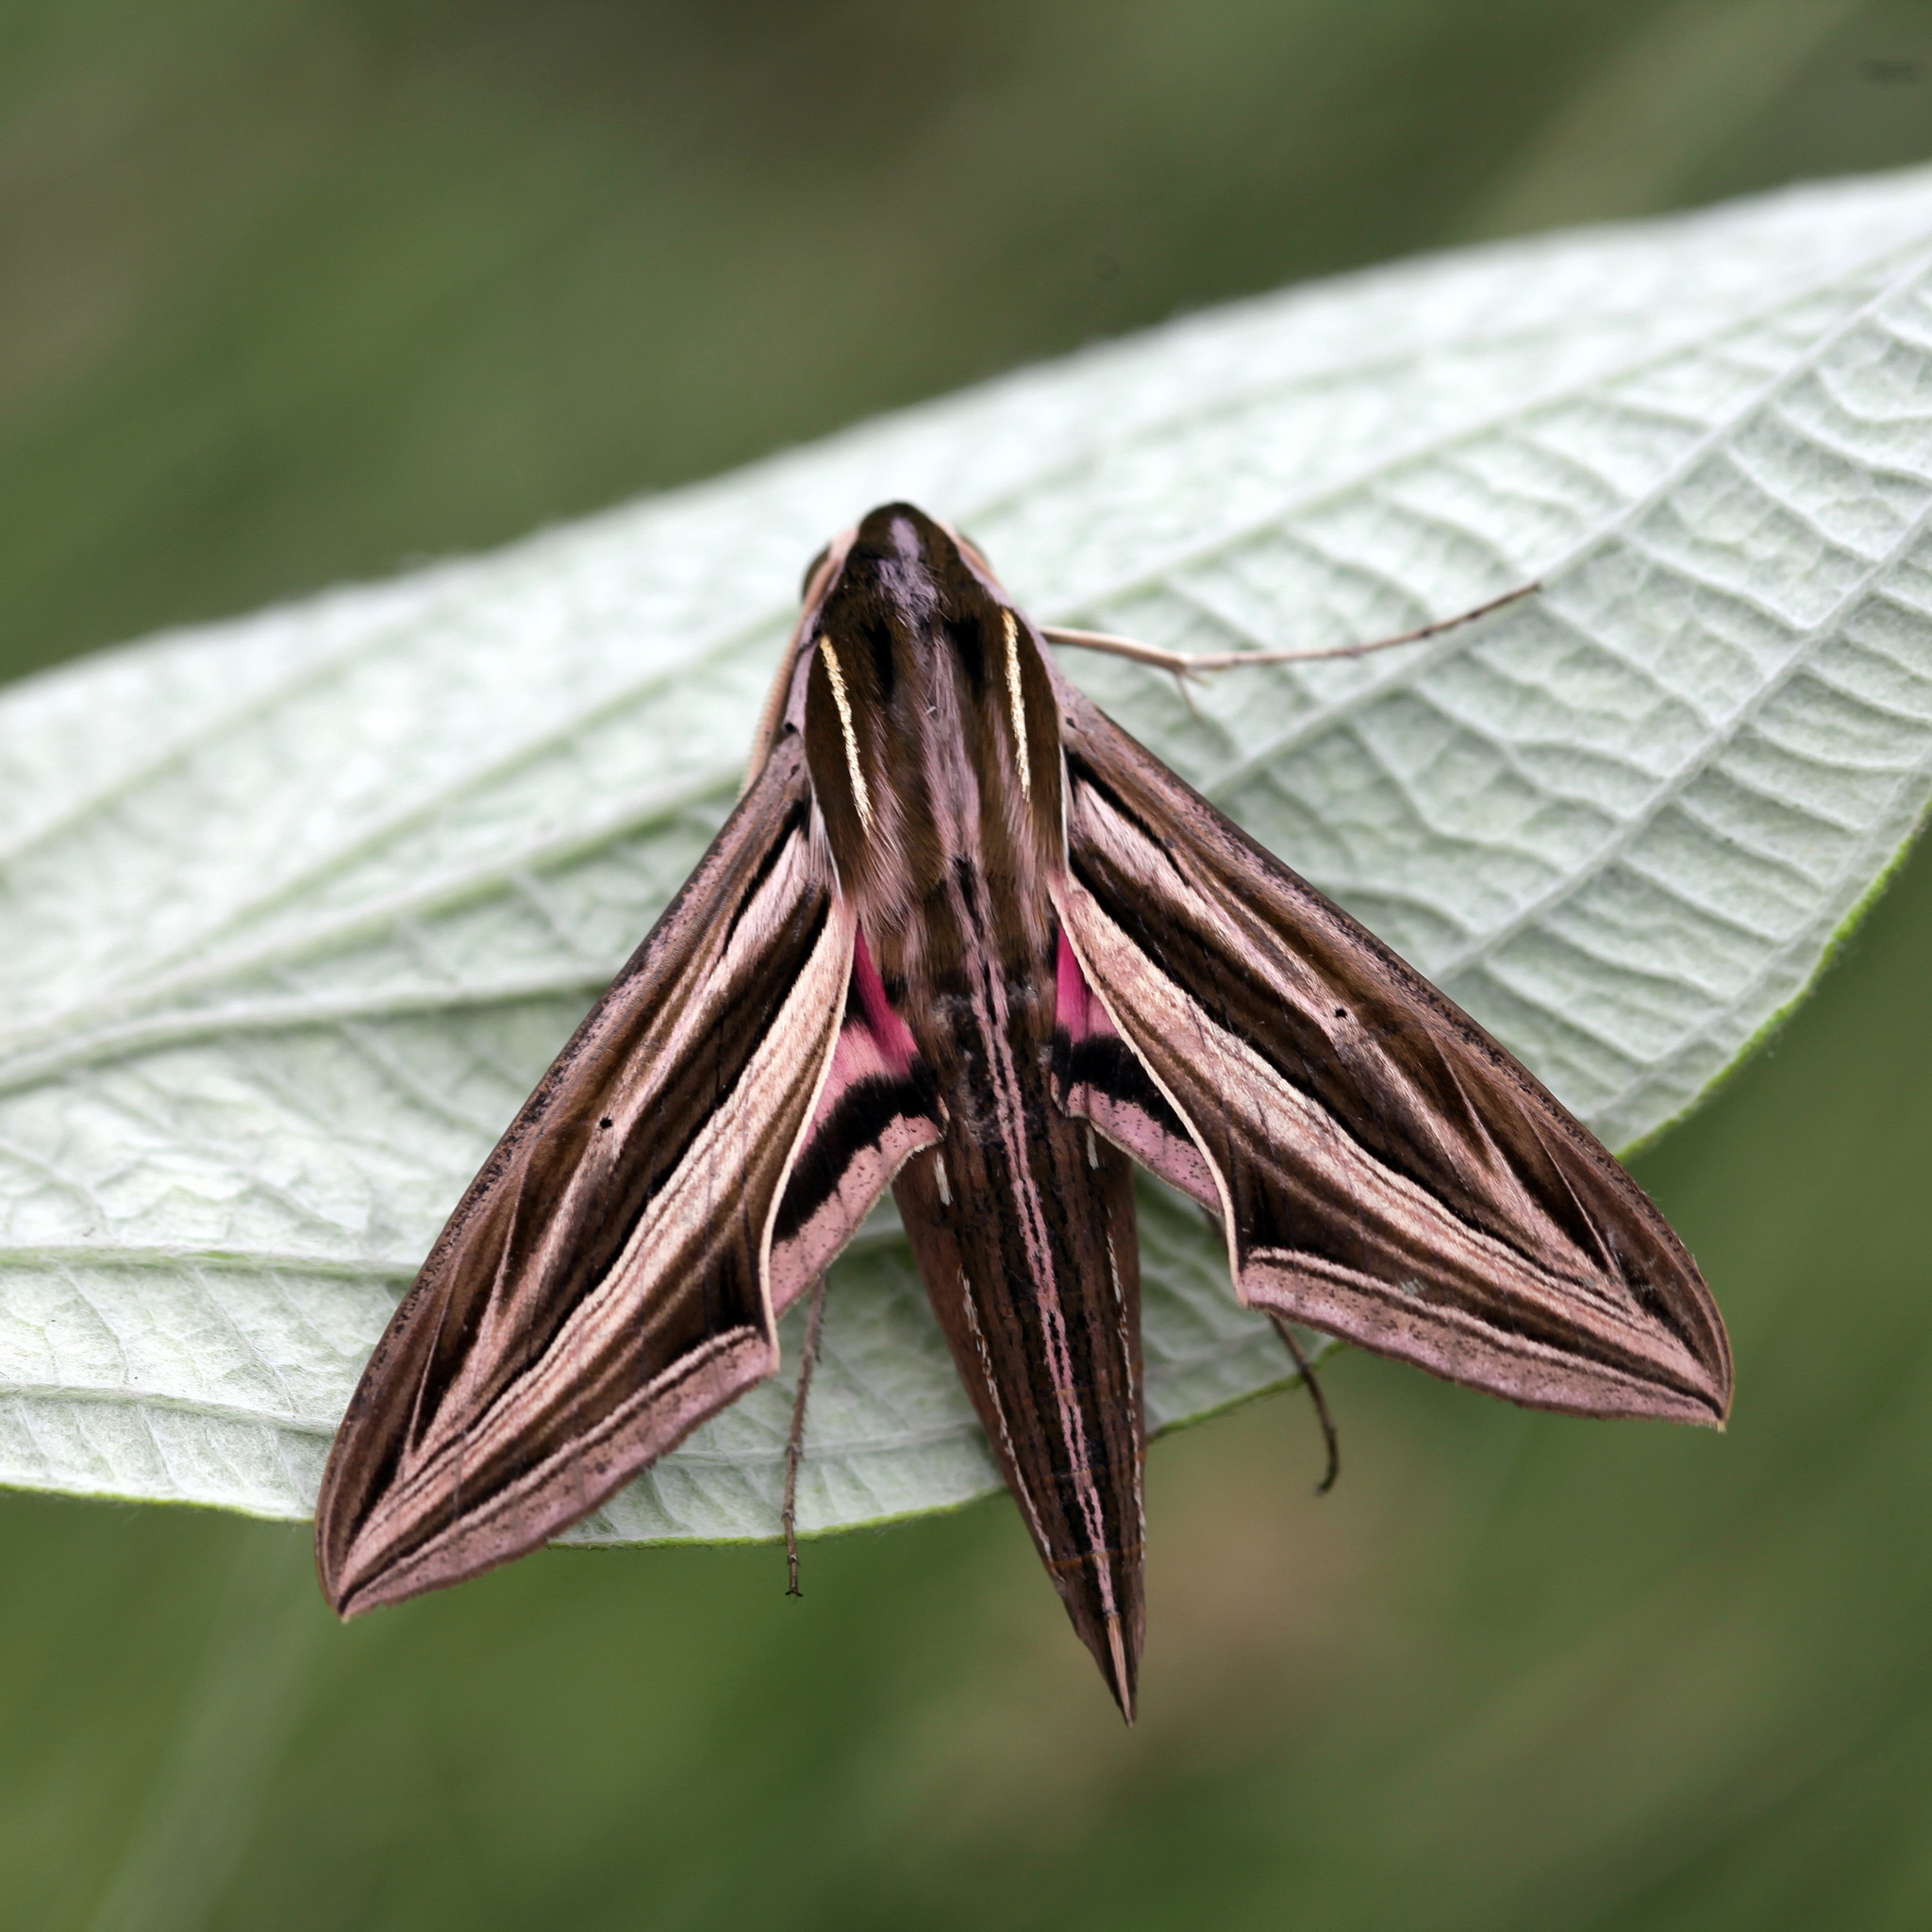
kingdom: Animalia
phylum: Arthropoda
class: Insecta
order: Lepidoptera
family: Sphingidae
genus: Hippotion
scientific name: Hippotion osiris
